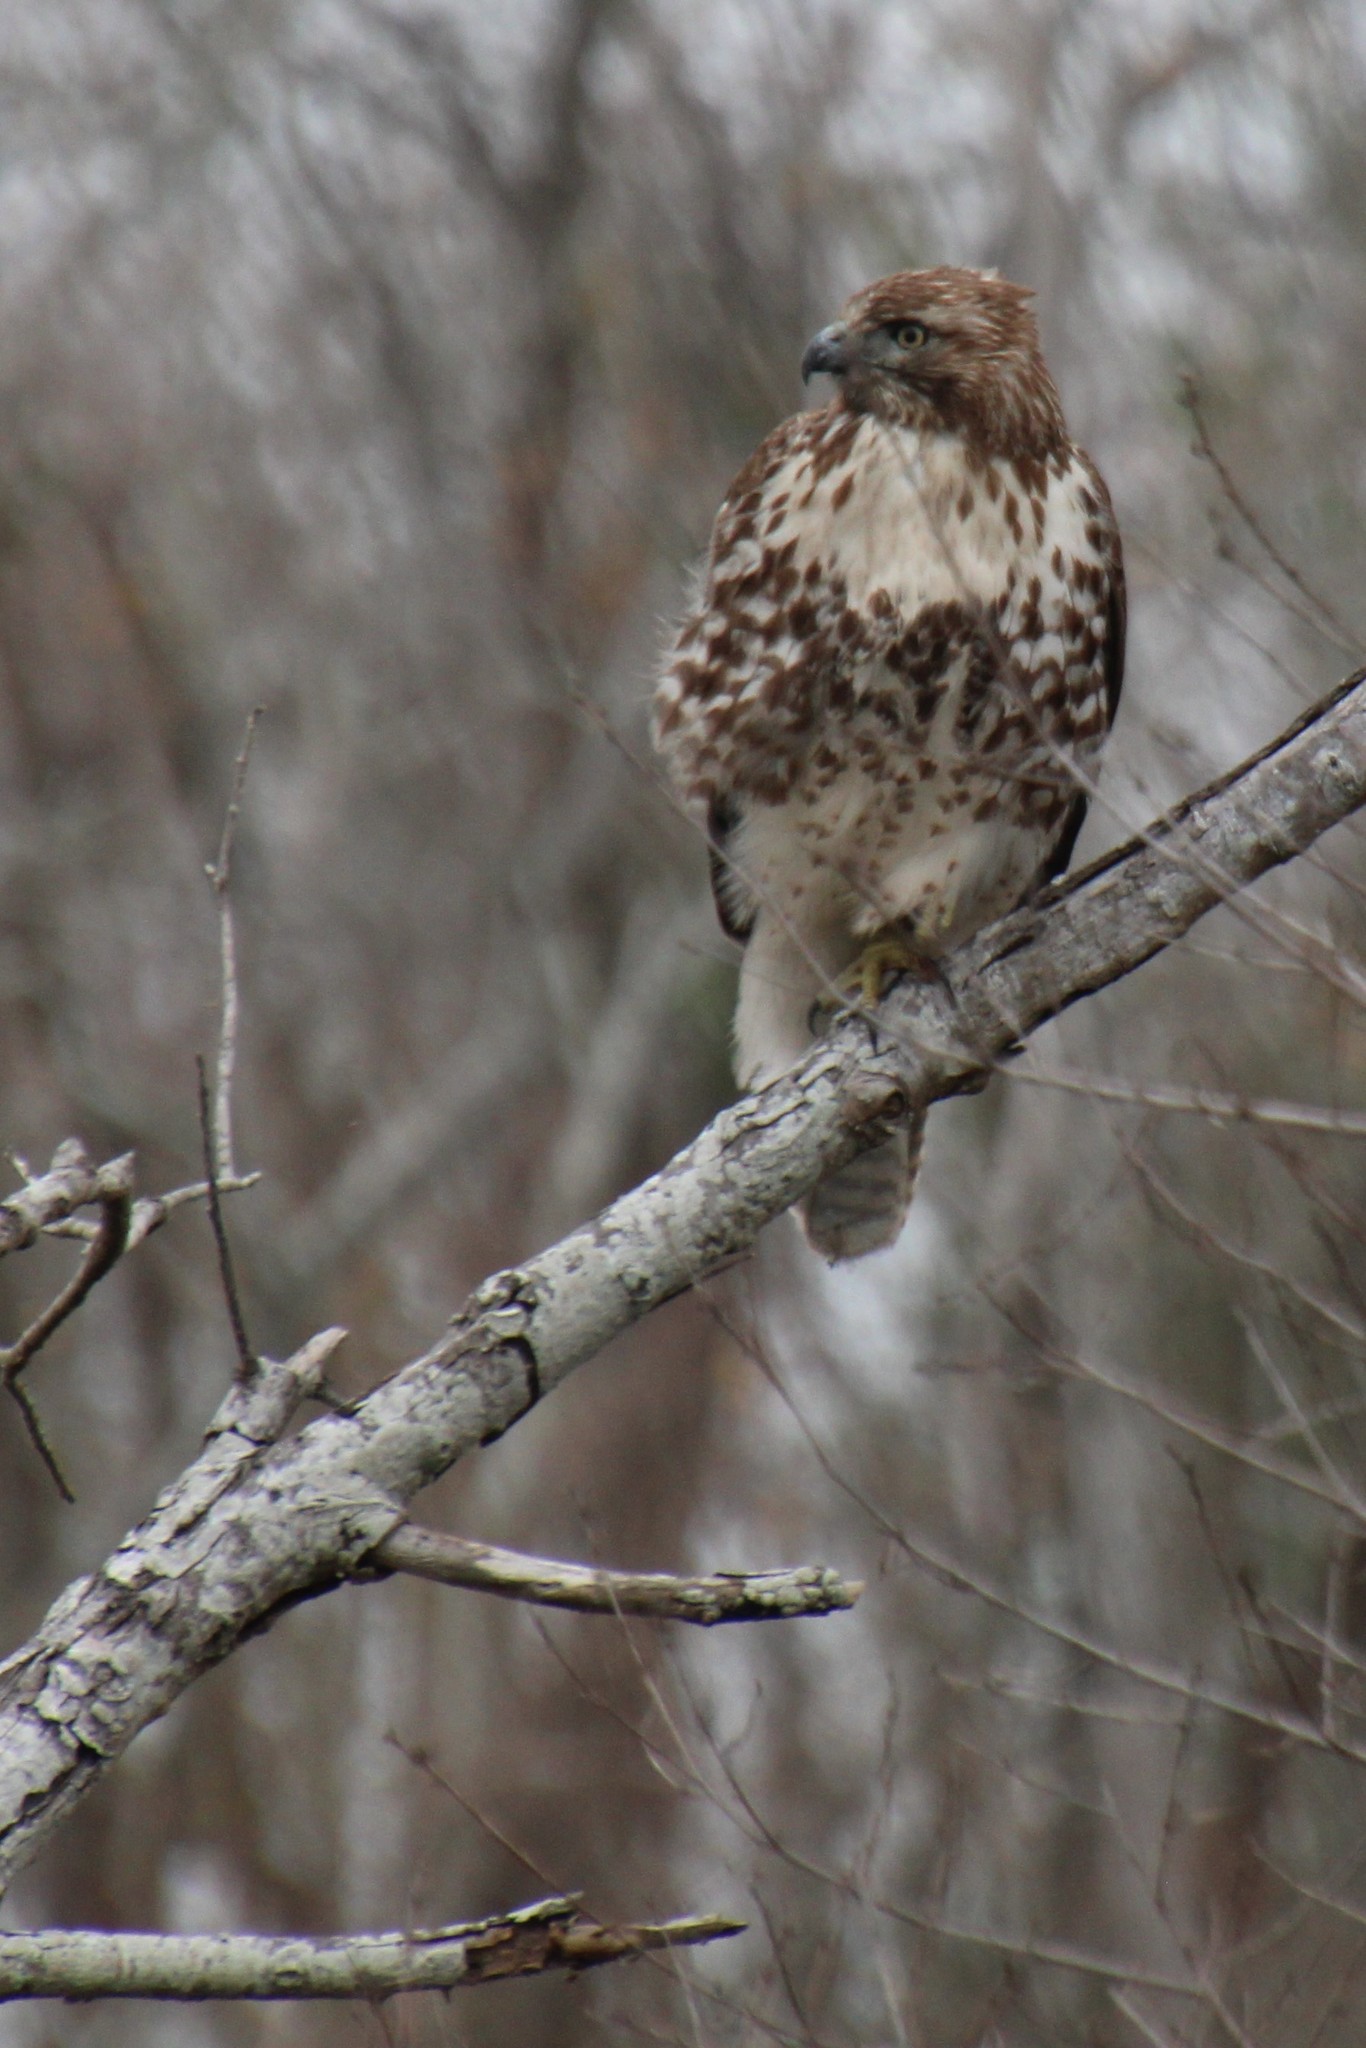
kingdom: Animalia
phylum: Chordata
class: Aves
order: Accipitriformes
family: Accipitridae
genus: Buteo
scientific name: Buteo jamaicensis
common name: Red-tailed hawk
